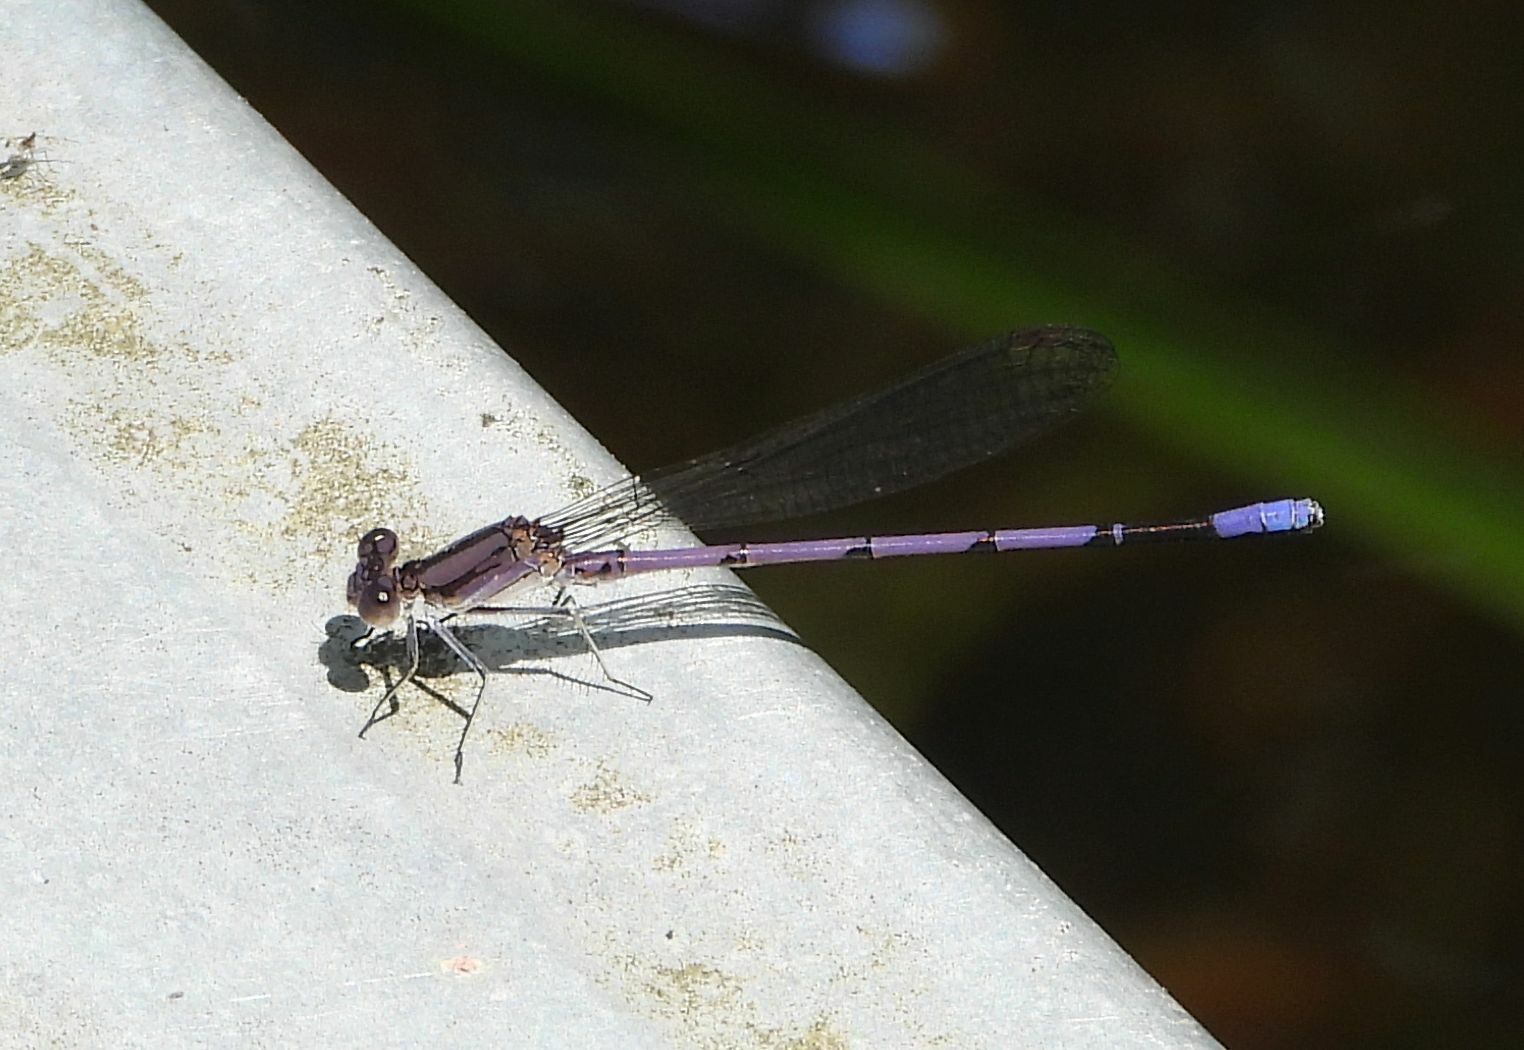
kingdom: Animalia
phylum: Arthropoda
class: Insecta
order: Odonata
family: Coenagrionidae
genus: Argia
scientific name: Argia fumipennis
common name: Variable dancer
